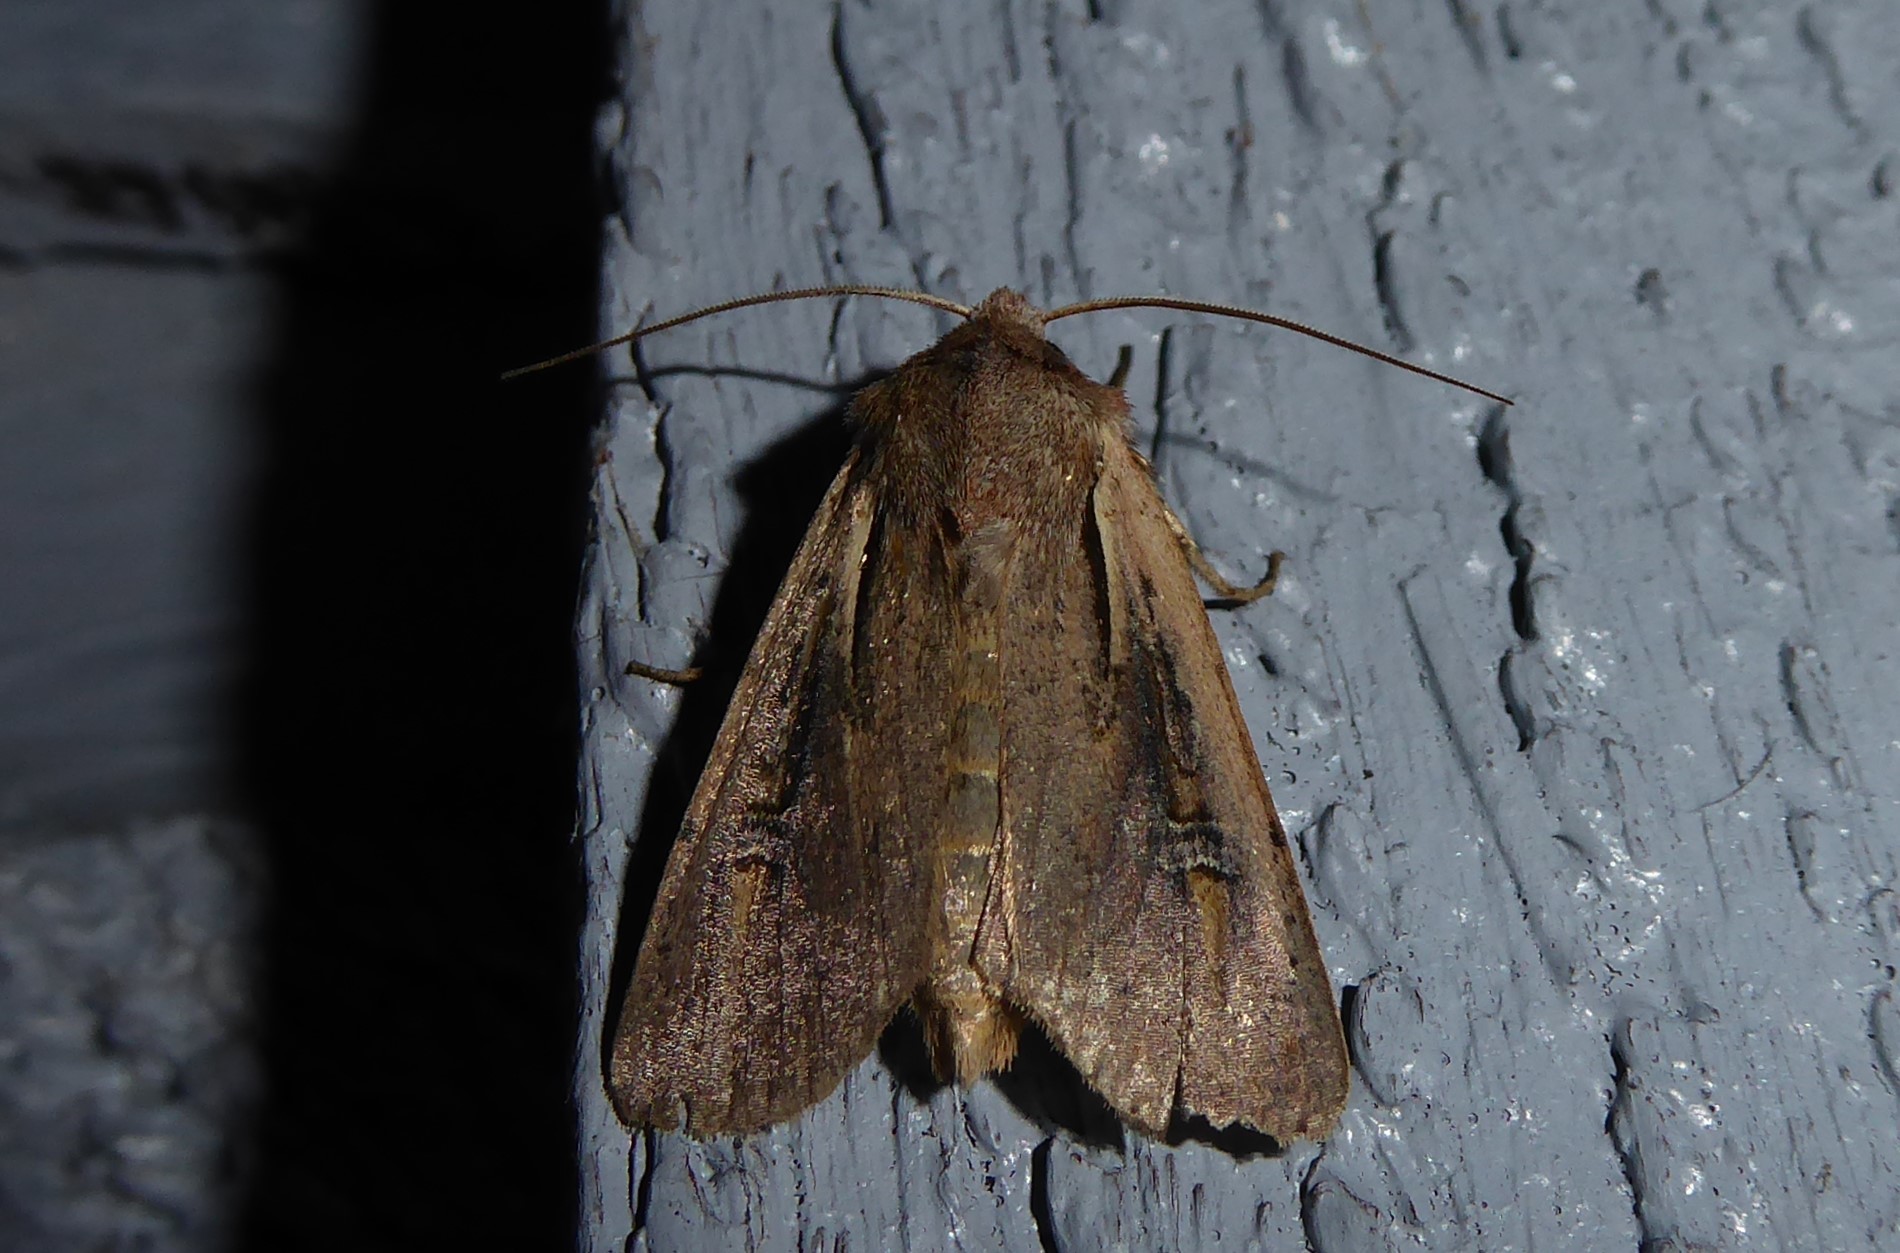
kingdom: Animalia
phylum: Arthropoda
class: Insecta
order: Lepidoptera
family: Noctuidae
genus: Ichneutica
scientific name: Ichneutica atristriga
